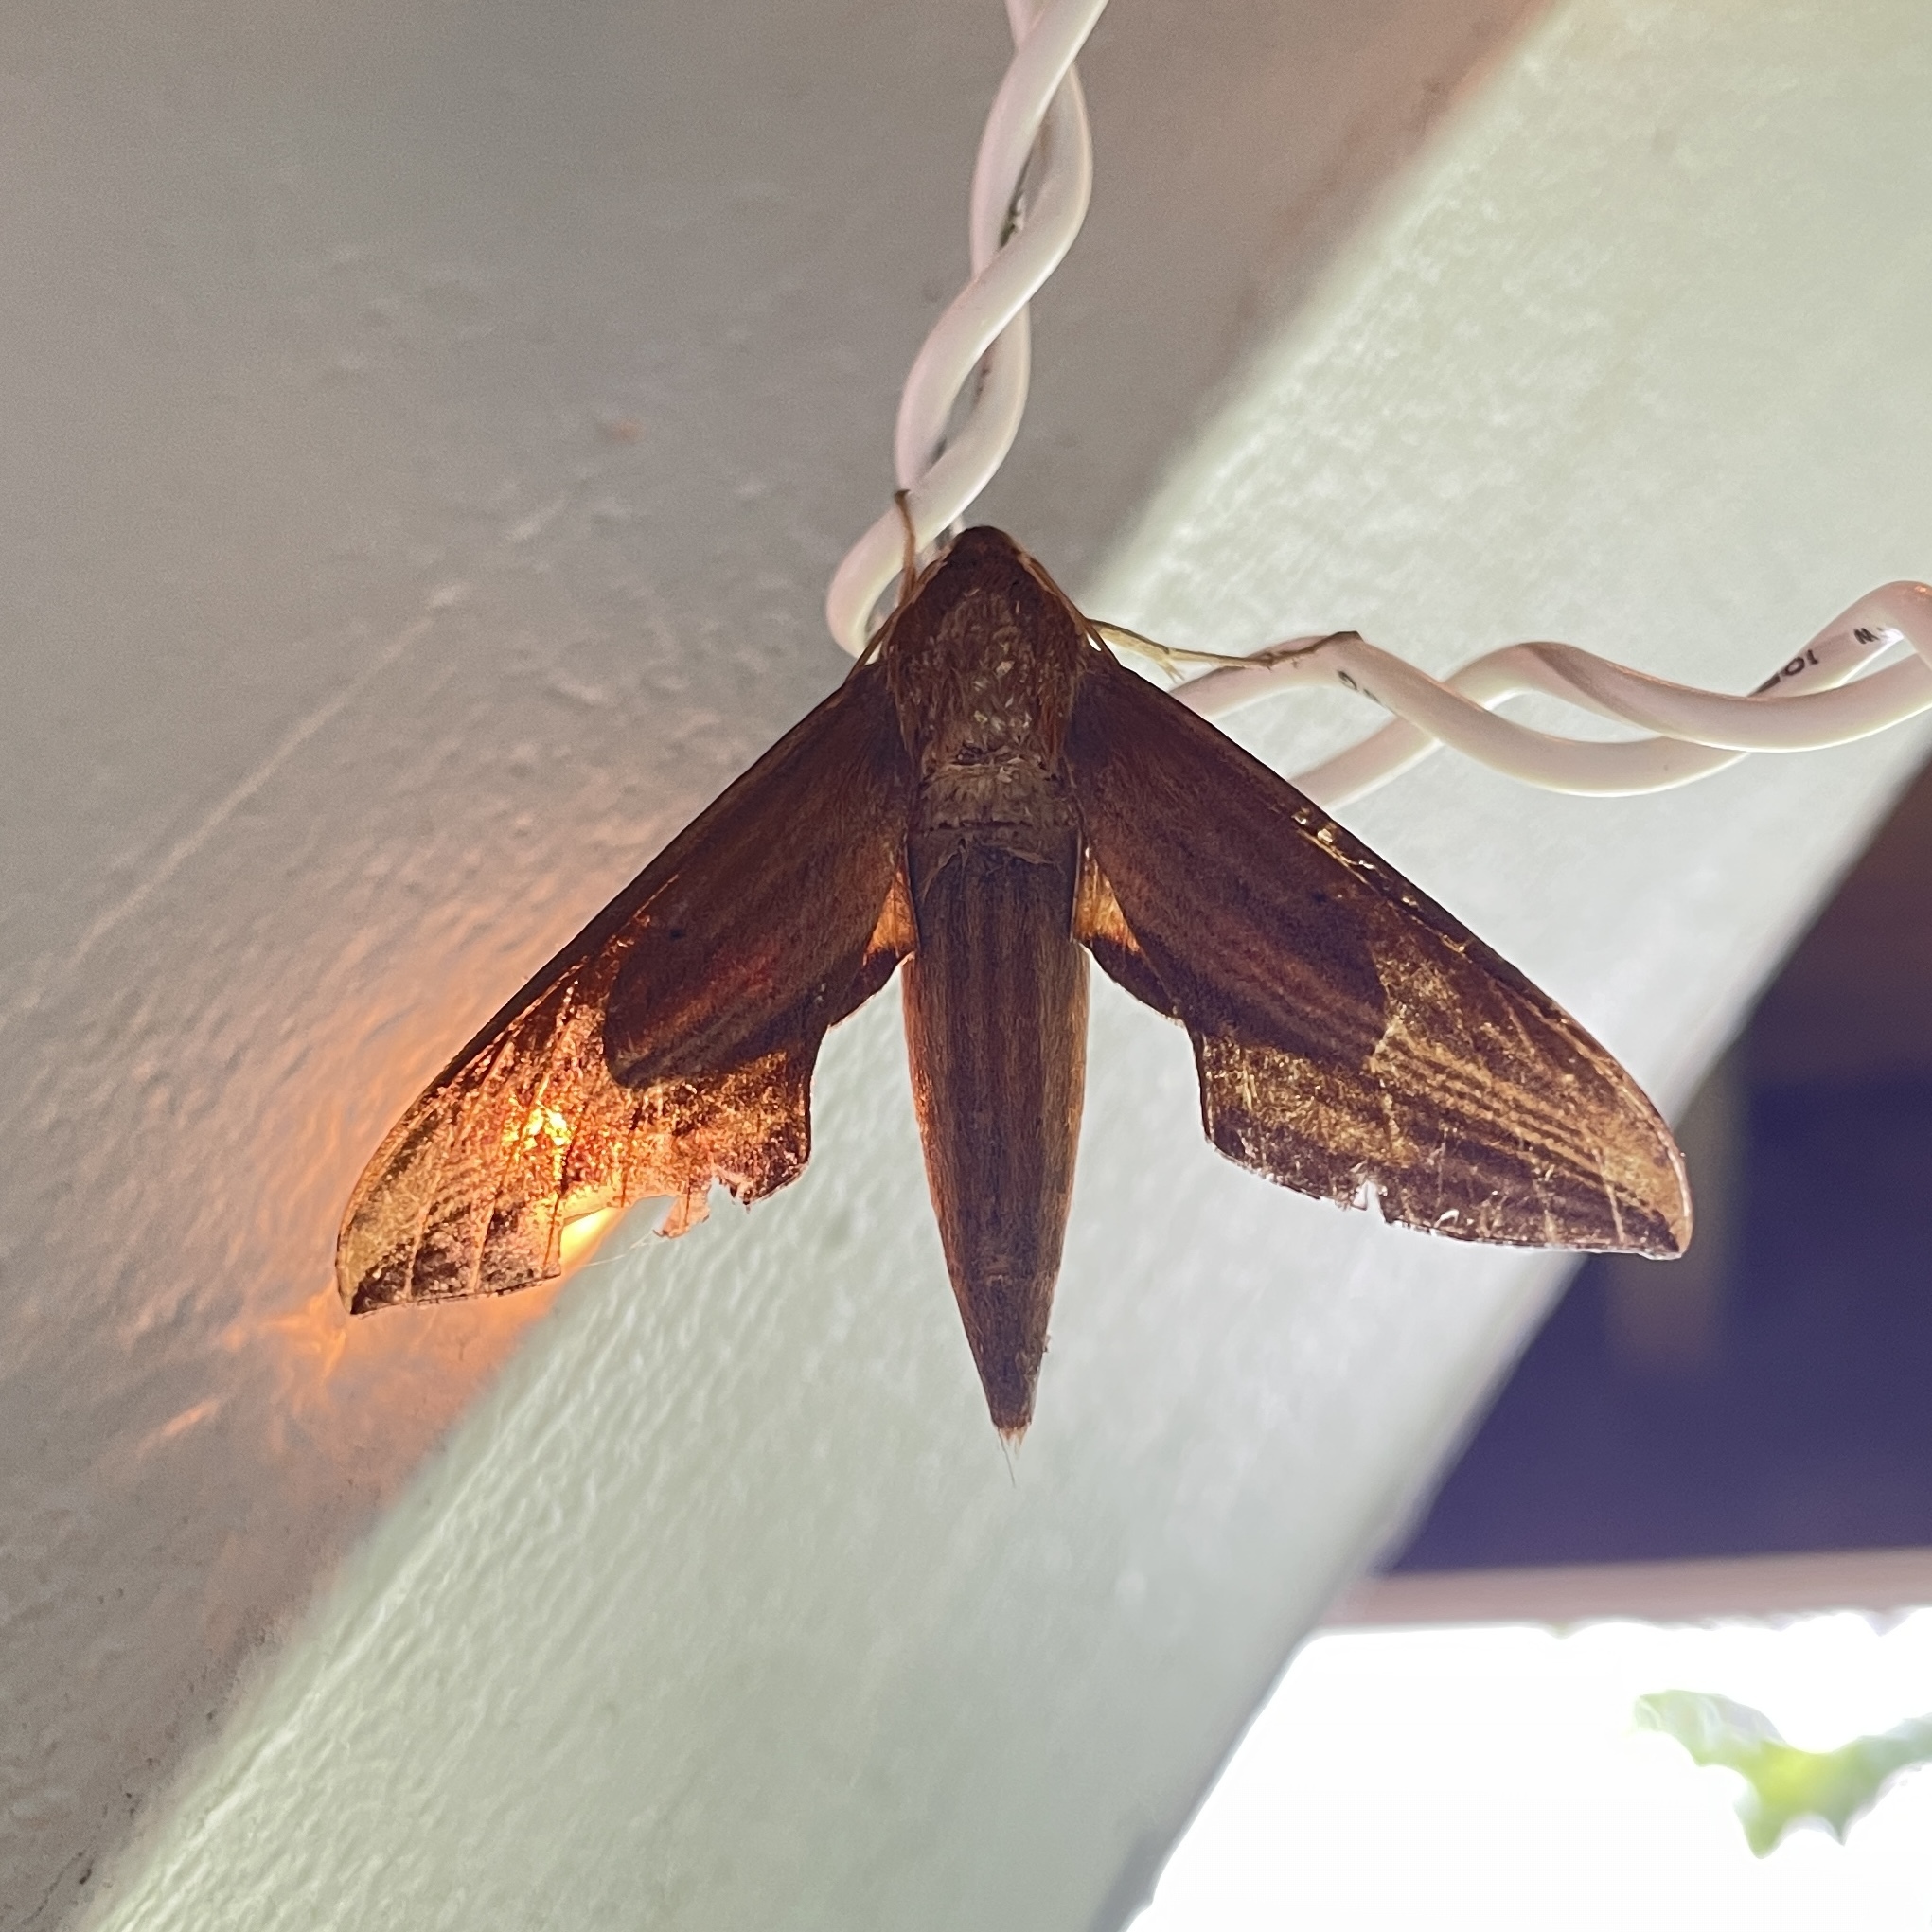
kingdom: Animalia
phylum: Arthropoda
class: Insecta
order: Lepidoptera
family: Sphingidae
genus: Xylophanes
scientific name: Xylophanes neoptolemus
